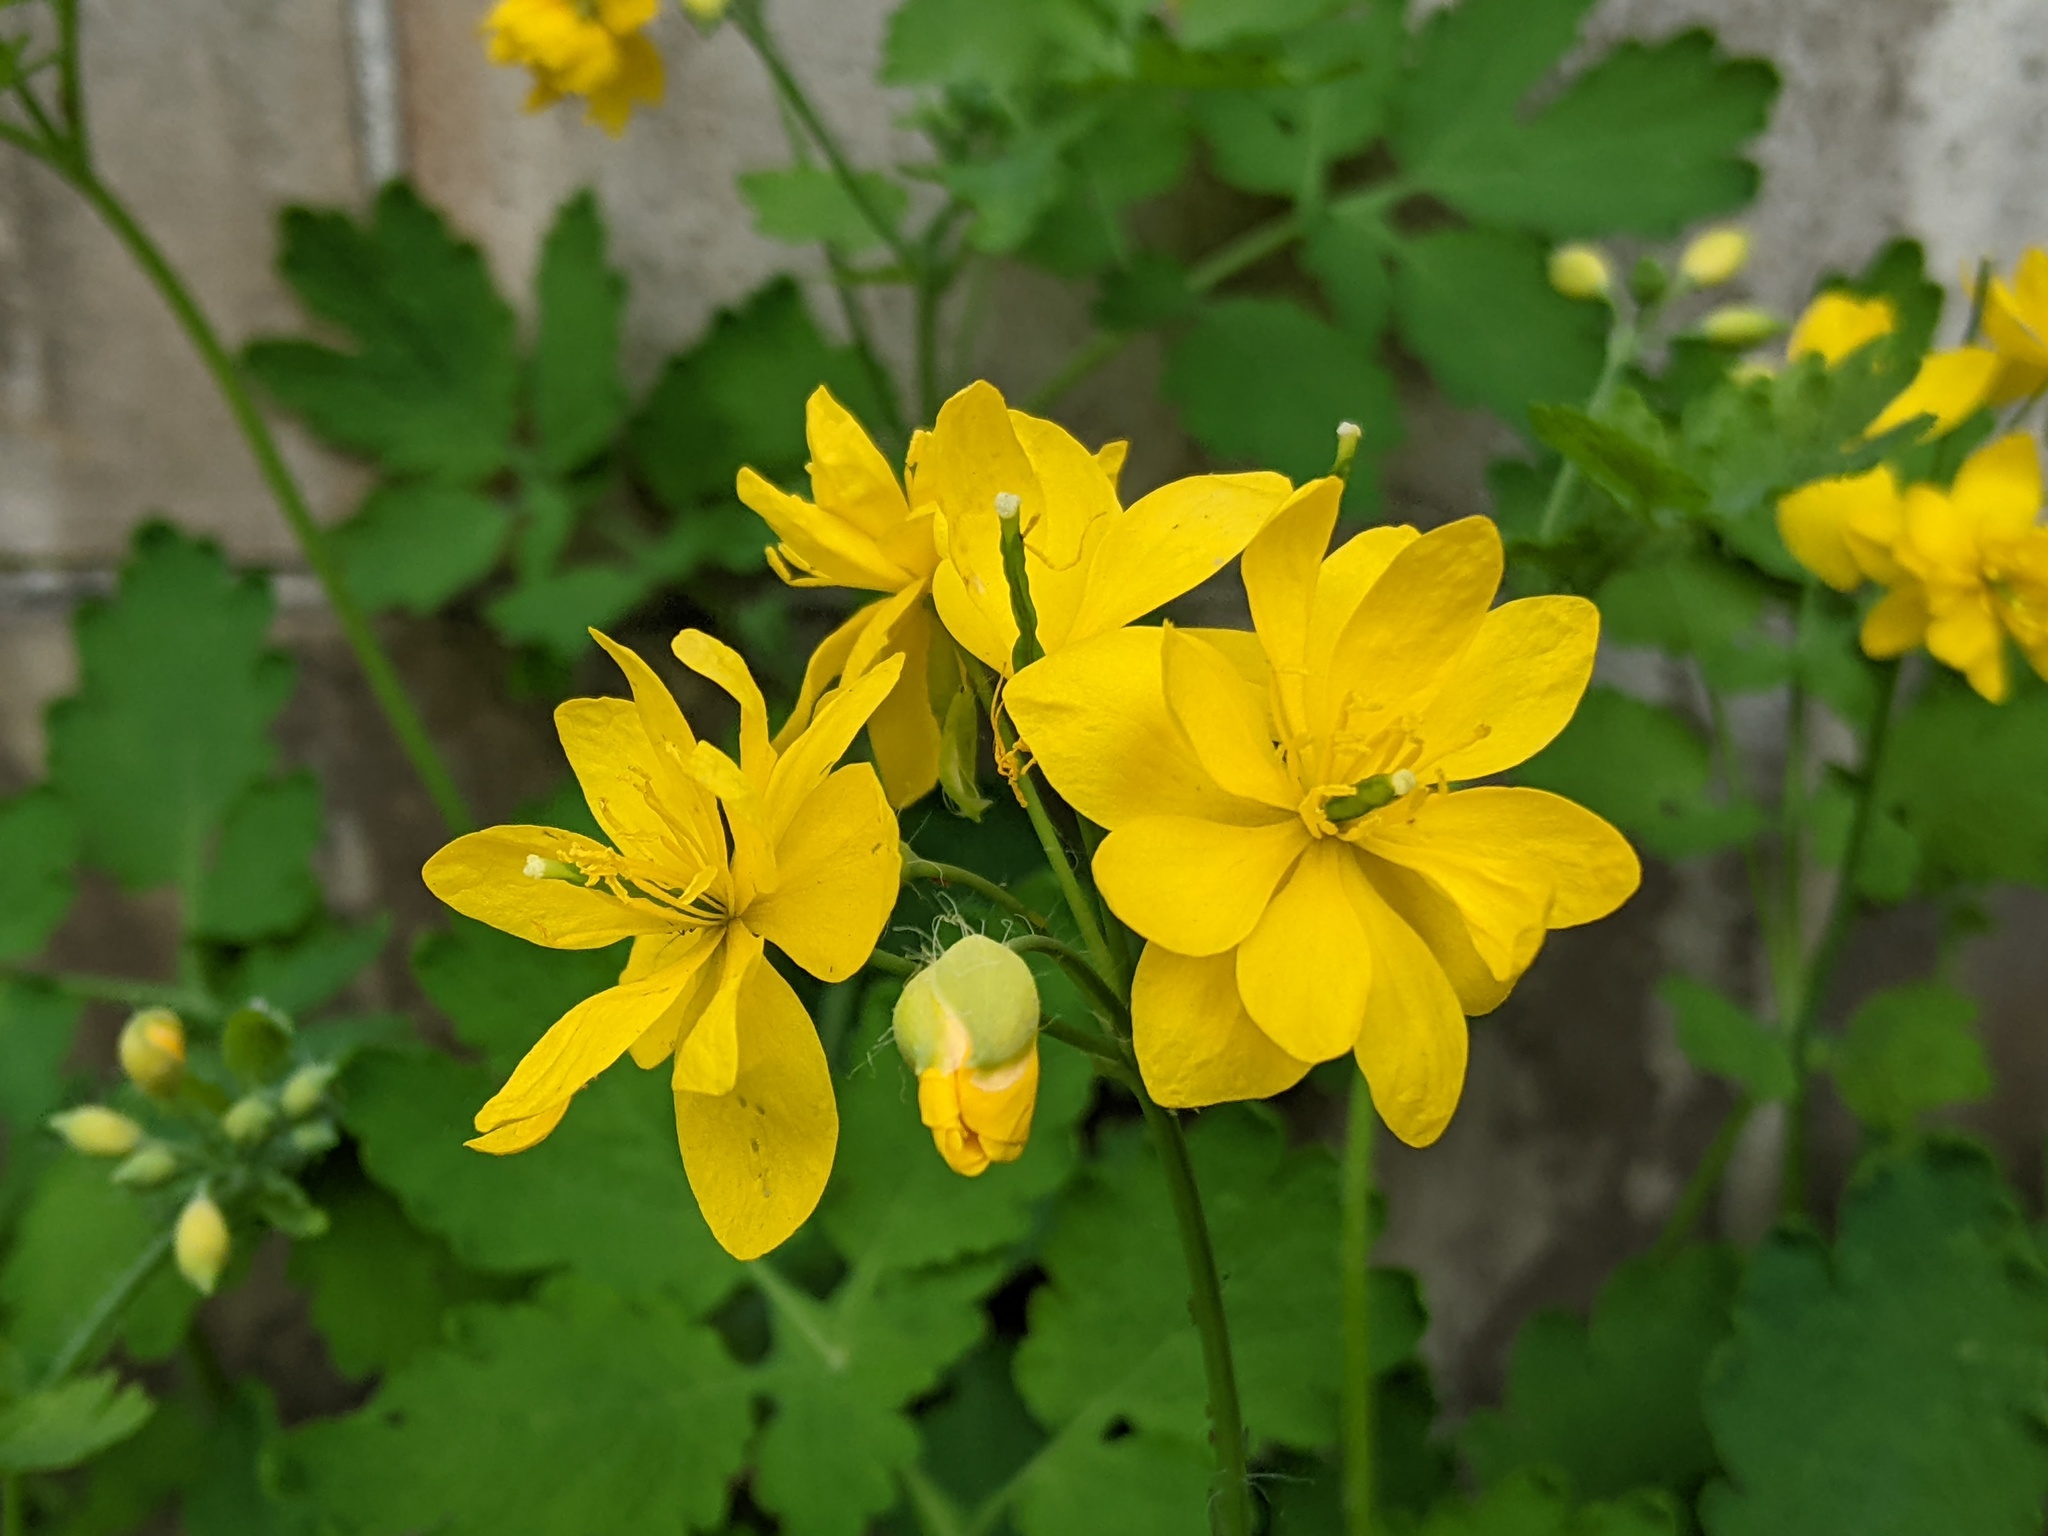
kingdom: Plantae
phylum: Tracheophyta
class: Magnoliopsida
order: Ranunculales
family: Papaveraceae
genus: Chelidonium
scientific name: Chelidonium majus
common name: Greater celandine
